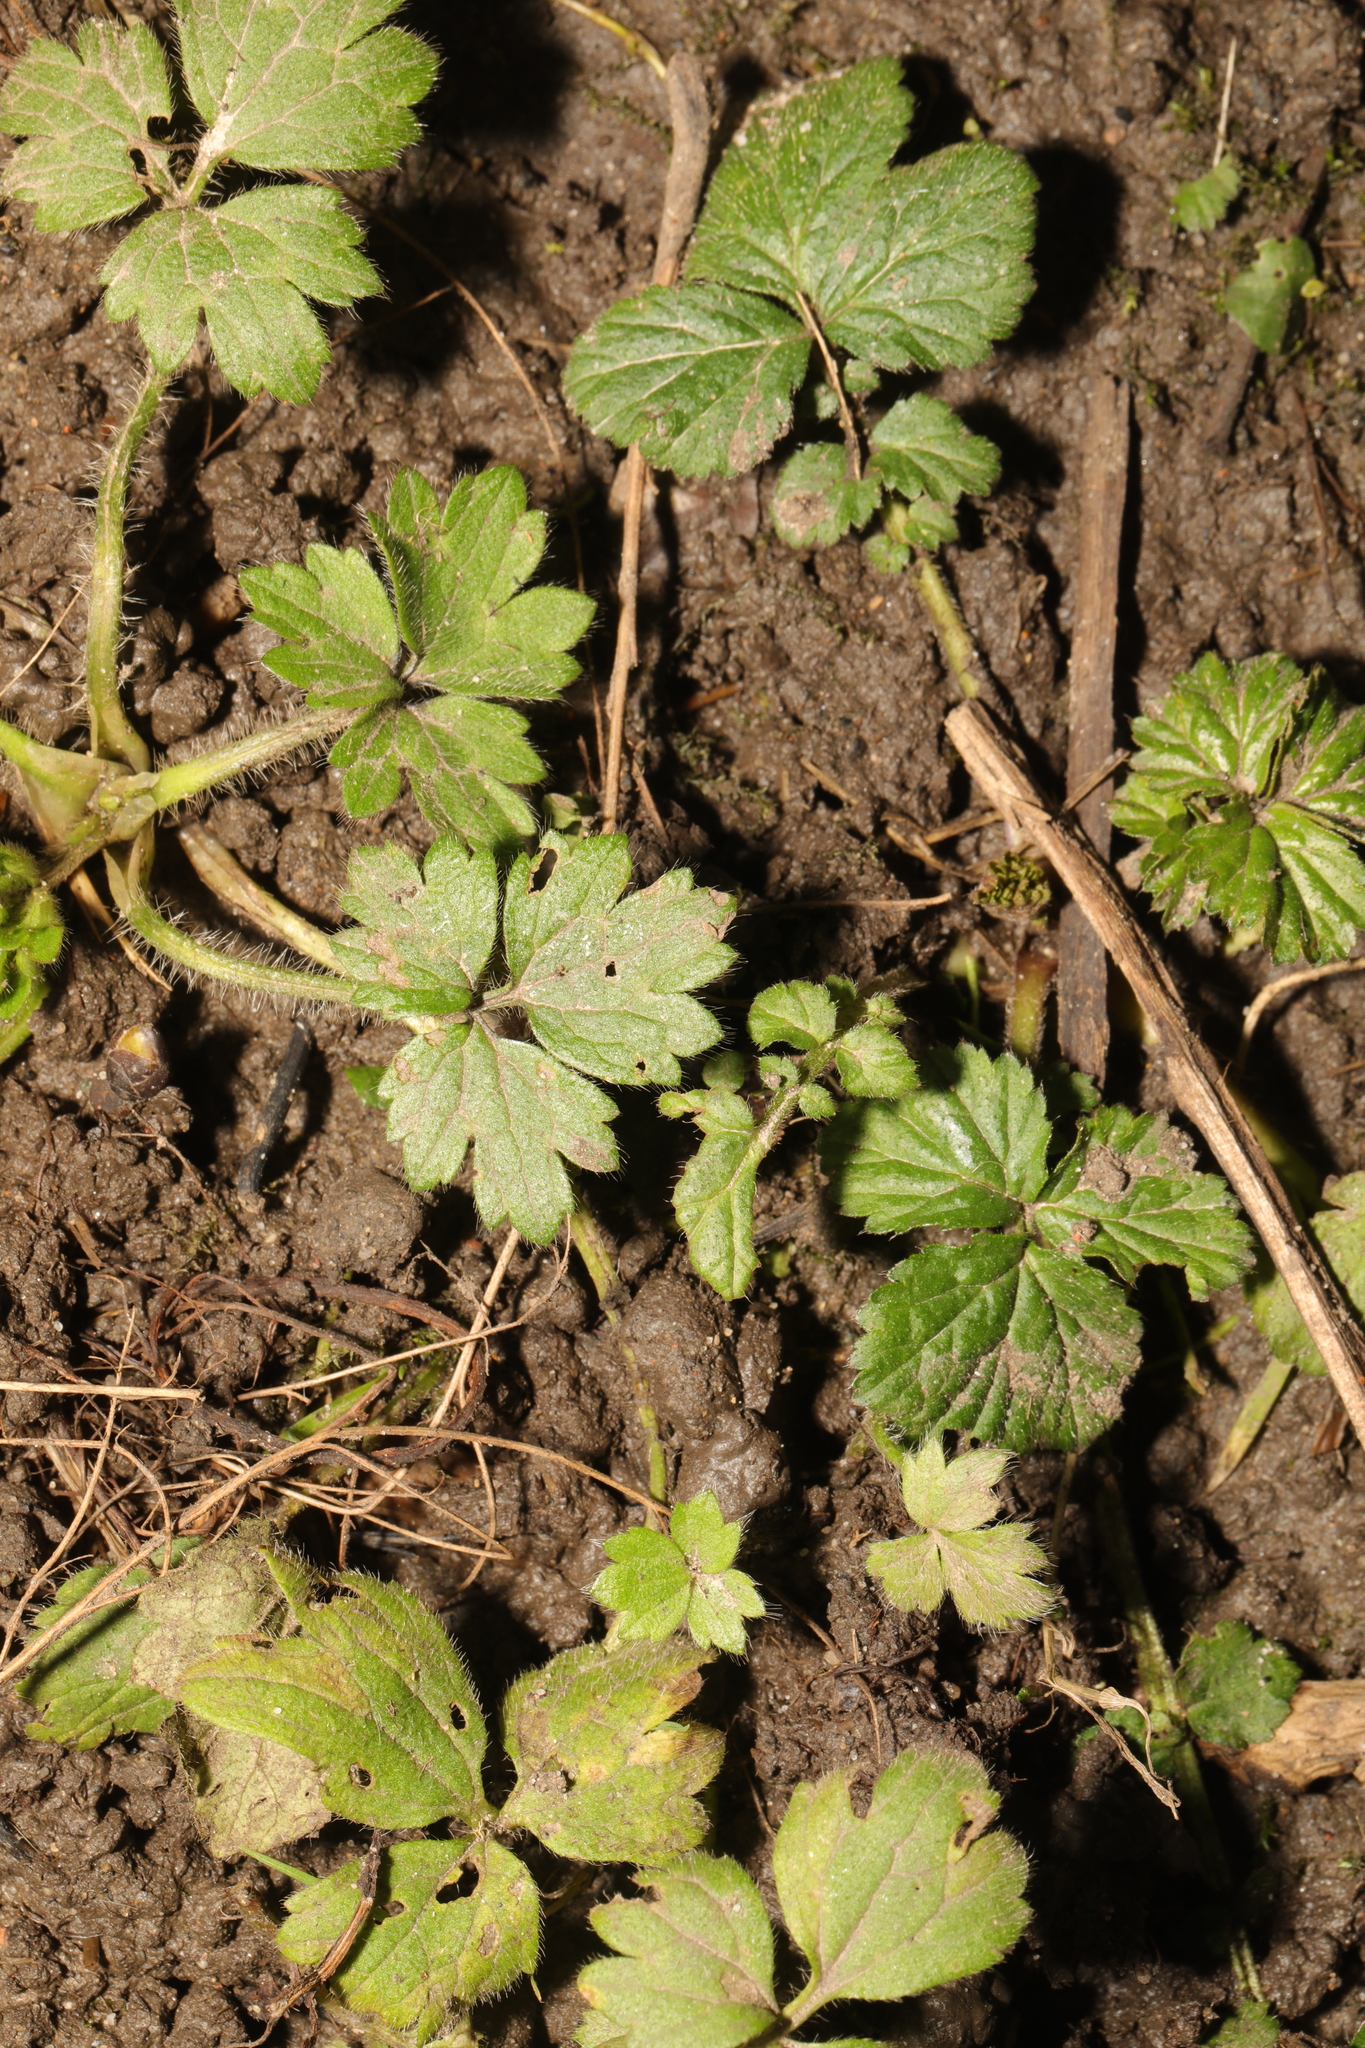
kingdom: Plantae
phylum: Tracheophyta
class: Magnoliopsida
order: Ranunculales
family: Ranunculaceae
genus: Ranunculus
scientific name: Ranunculus repens
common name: Creeping buttercup
